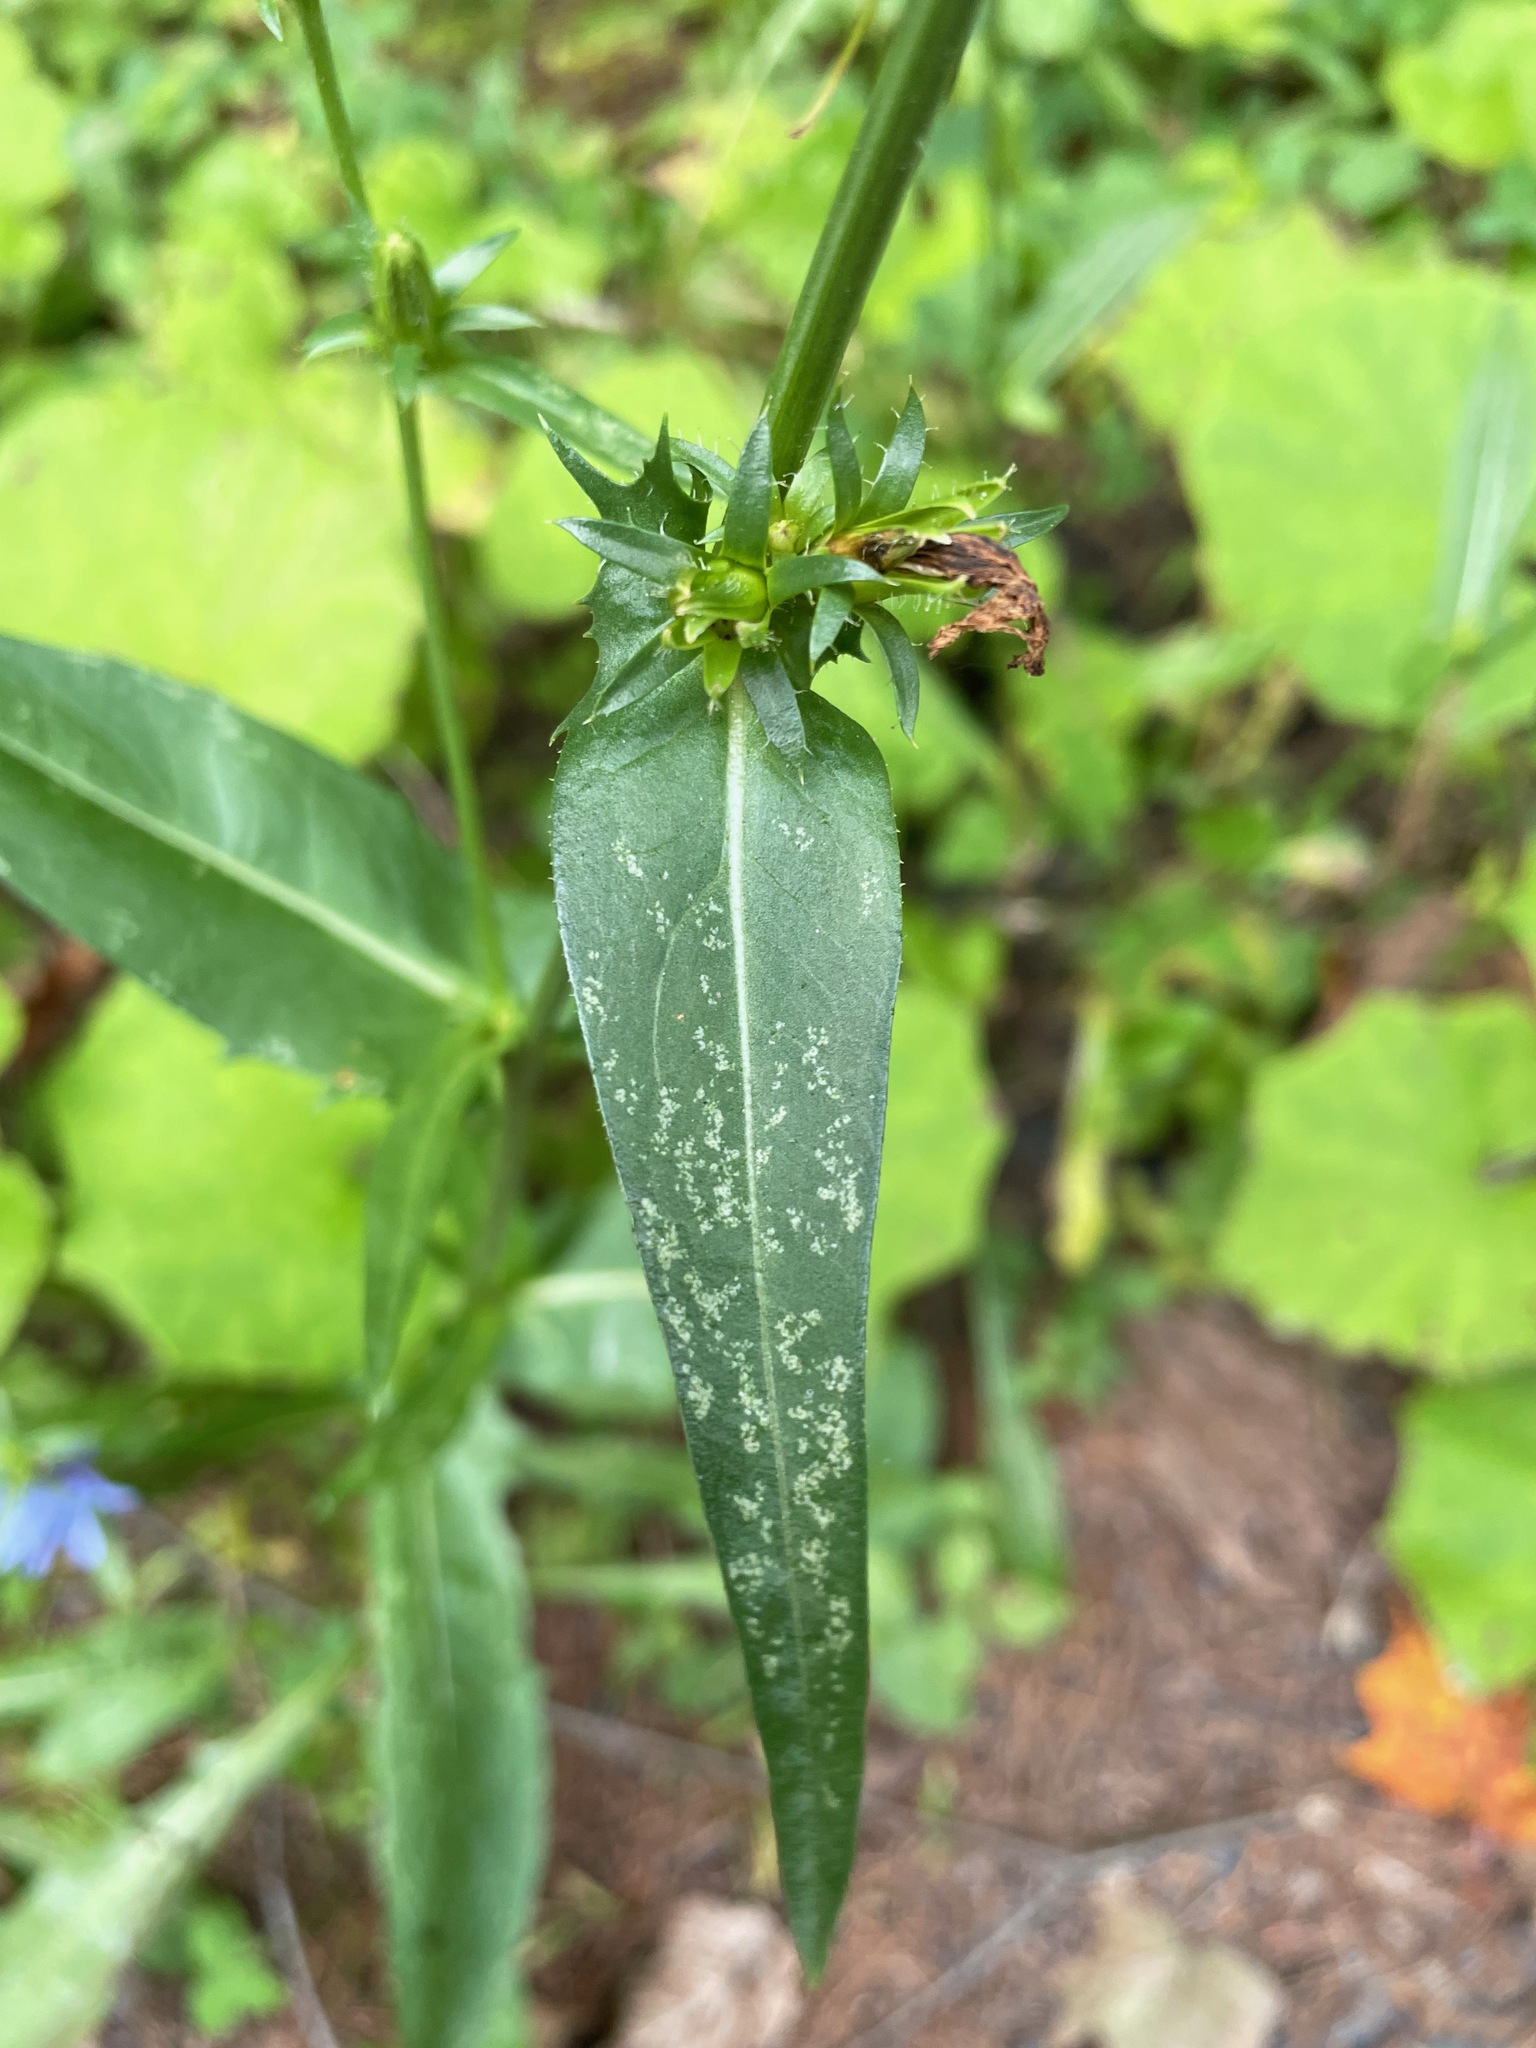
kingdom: Plantae
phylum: Tracheophyta
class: Magnoliopsida
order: Asterales
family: Asteraceae
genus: Cichorium
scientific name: Cichorium intybus
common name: Chicory
